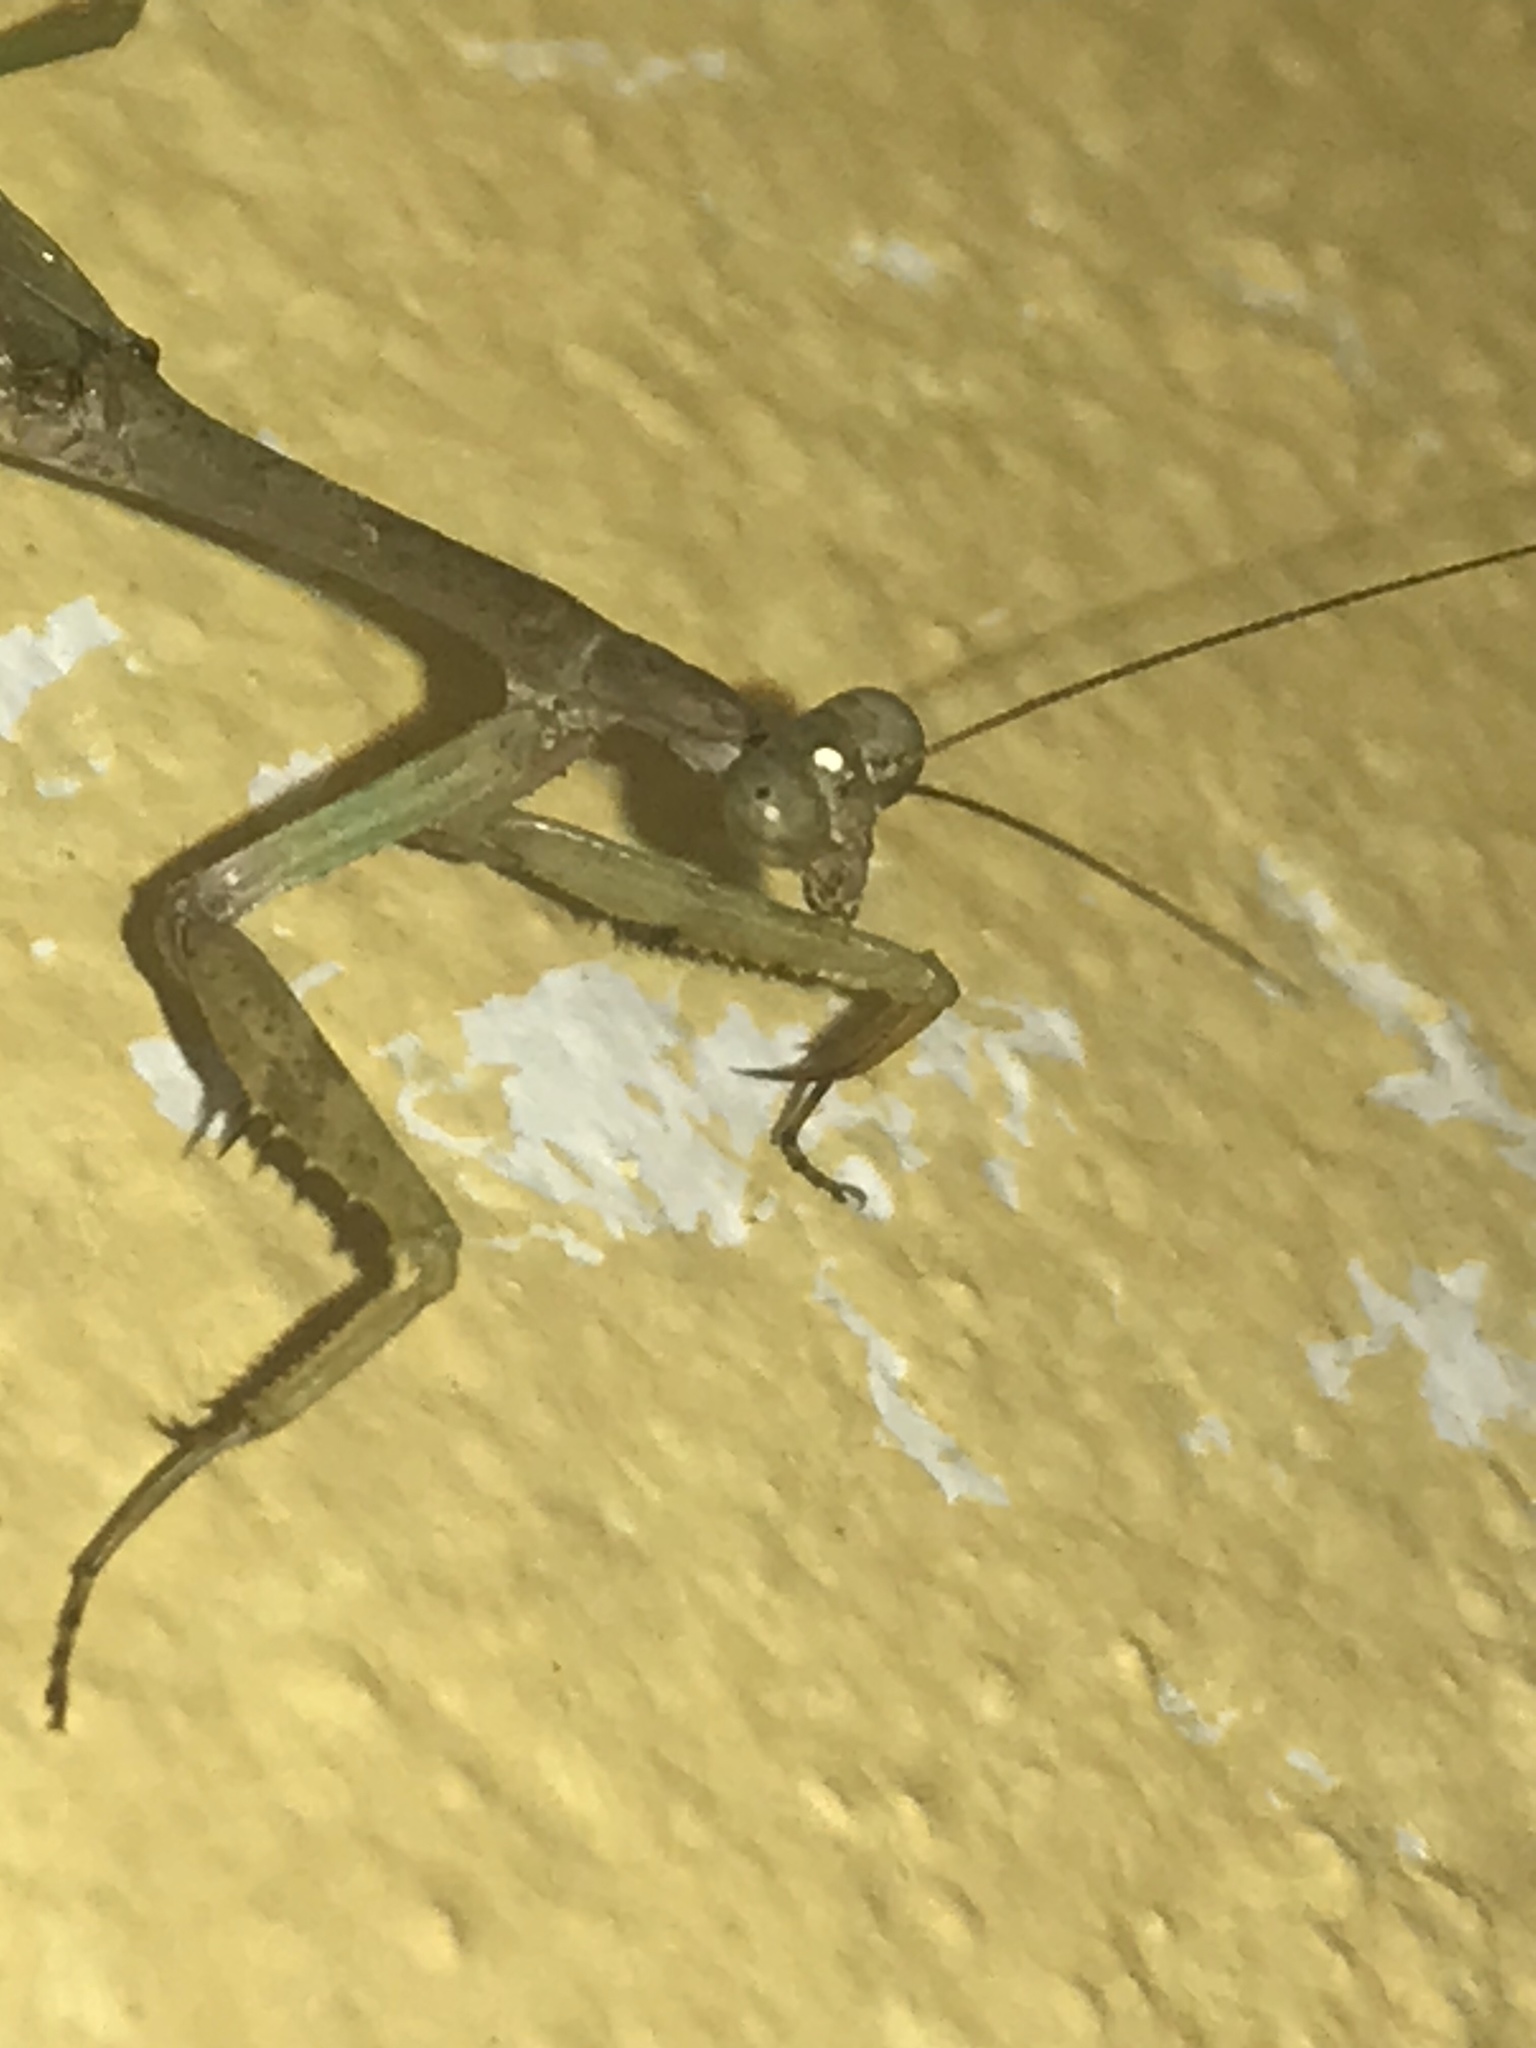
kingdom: Animalia
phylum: Arthropoda
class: Insecta
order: Mantodea
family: Mantidae
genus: Stagmomantis
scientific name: Stagmomantis carolina
